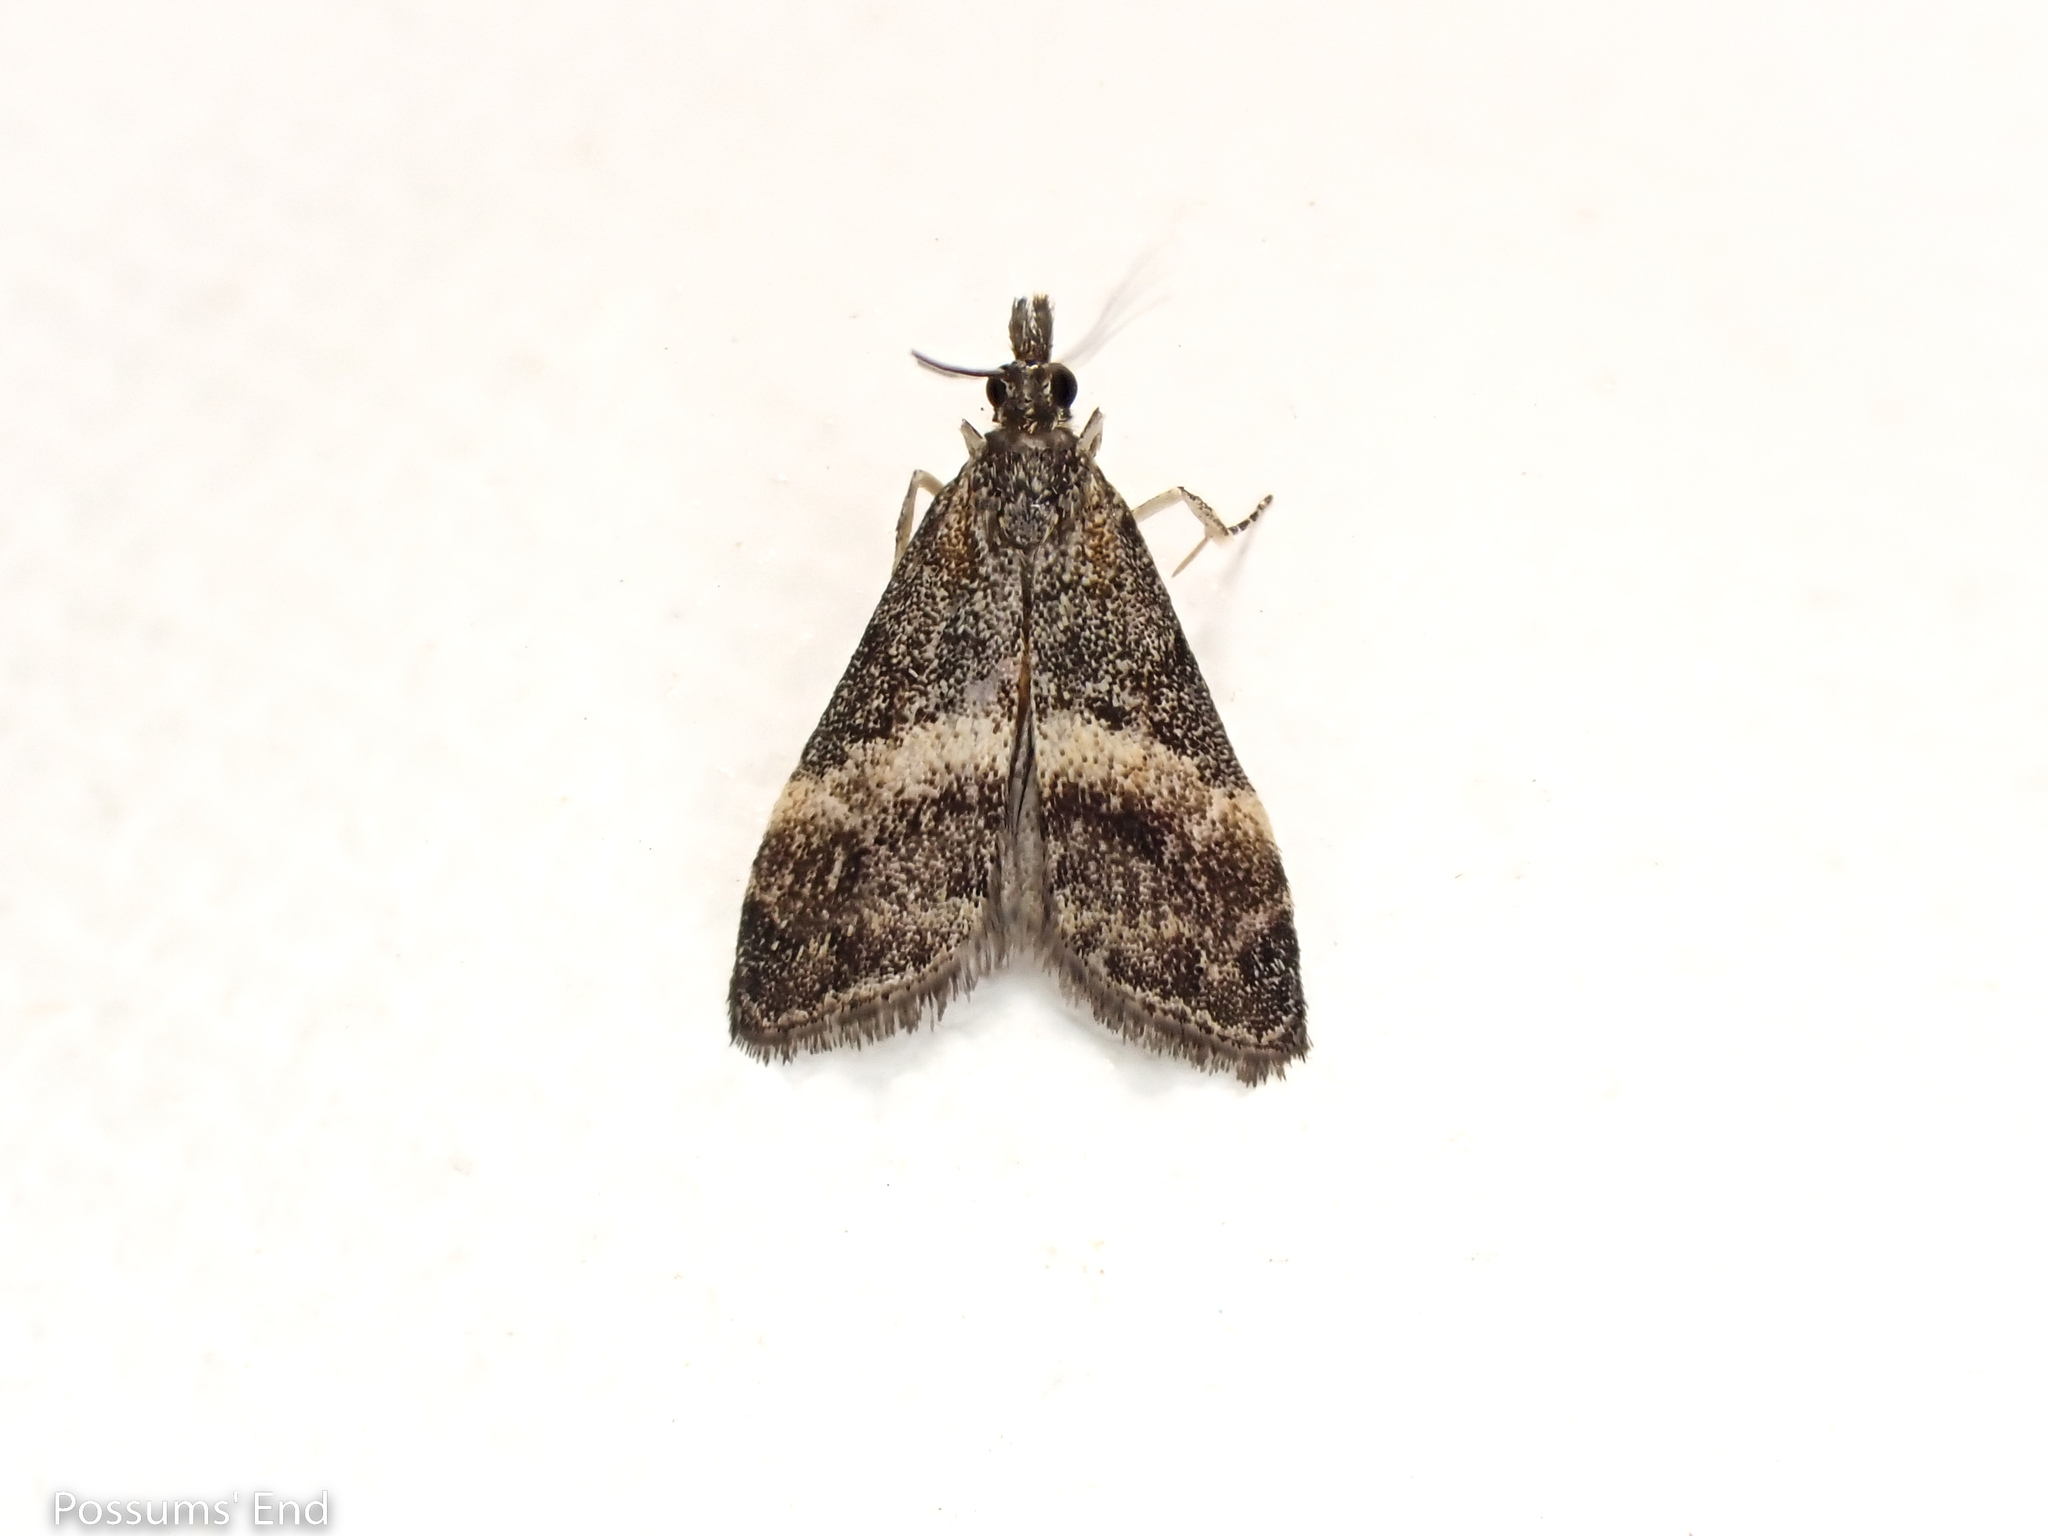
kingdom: Animalia
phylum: Arthropoda
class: Insecta
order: Lepidoptera
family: Crambidae
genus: Eudonia
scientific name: Eudonia chlamydota
